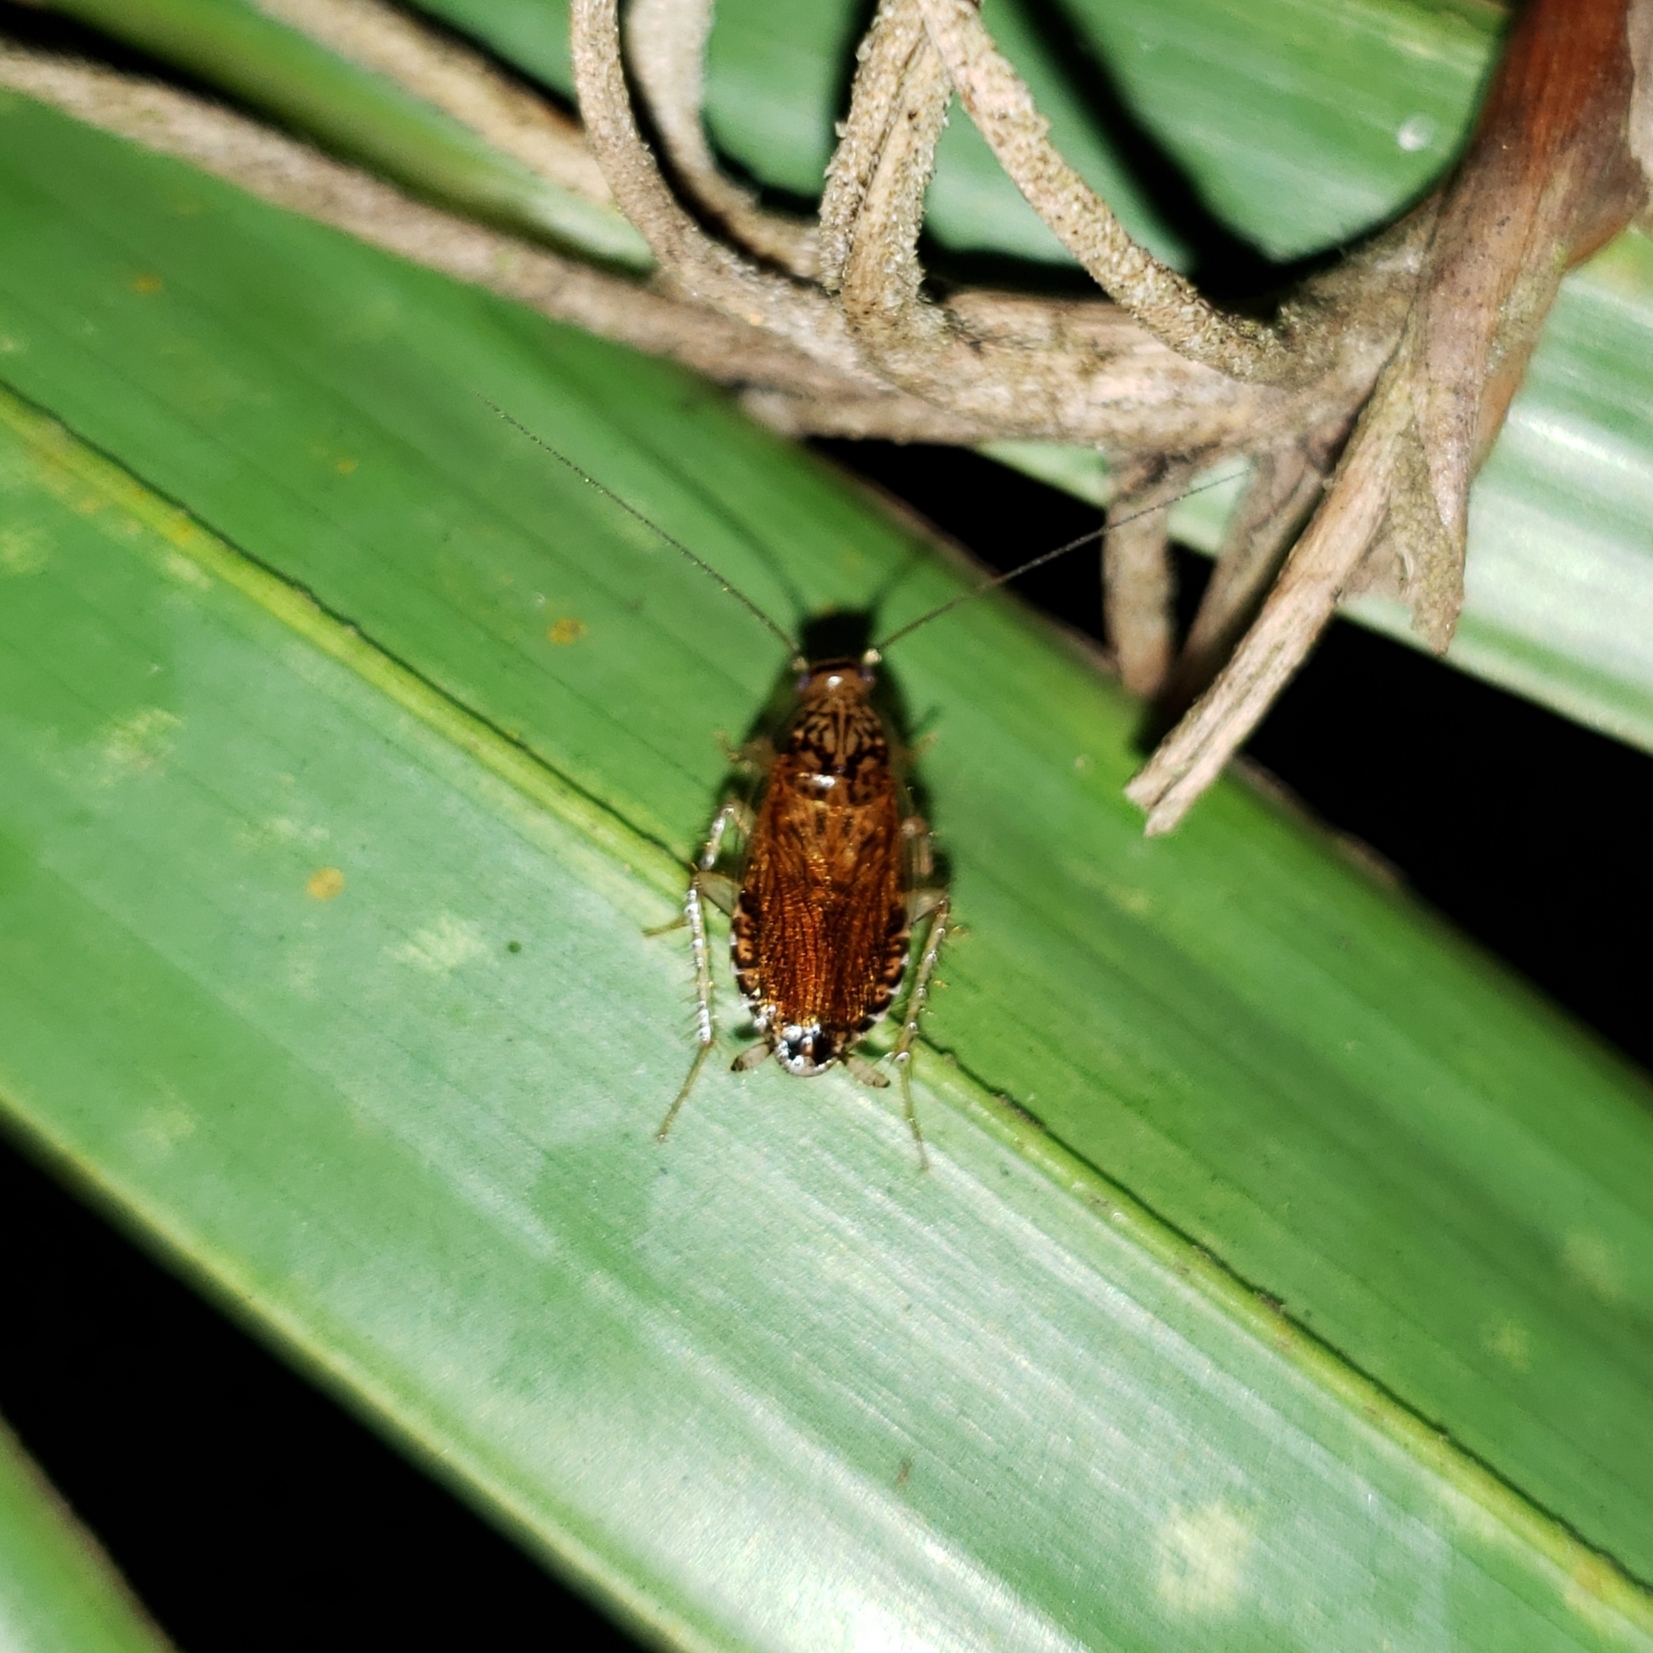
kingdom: Animalia
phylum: Arthropoda
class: Insecta
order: Blattodea
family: Ectobiidae
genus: Cariblatta
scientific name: Cariblatta lutea
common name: Small yellow cockroach
